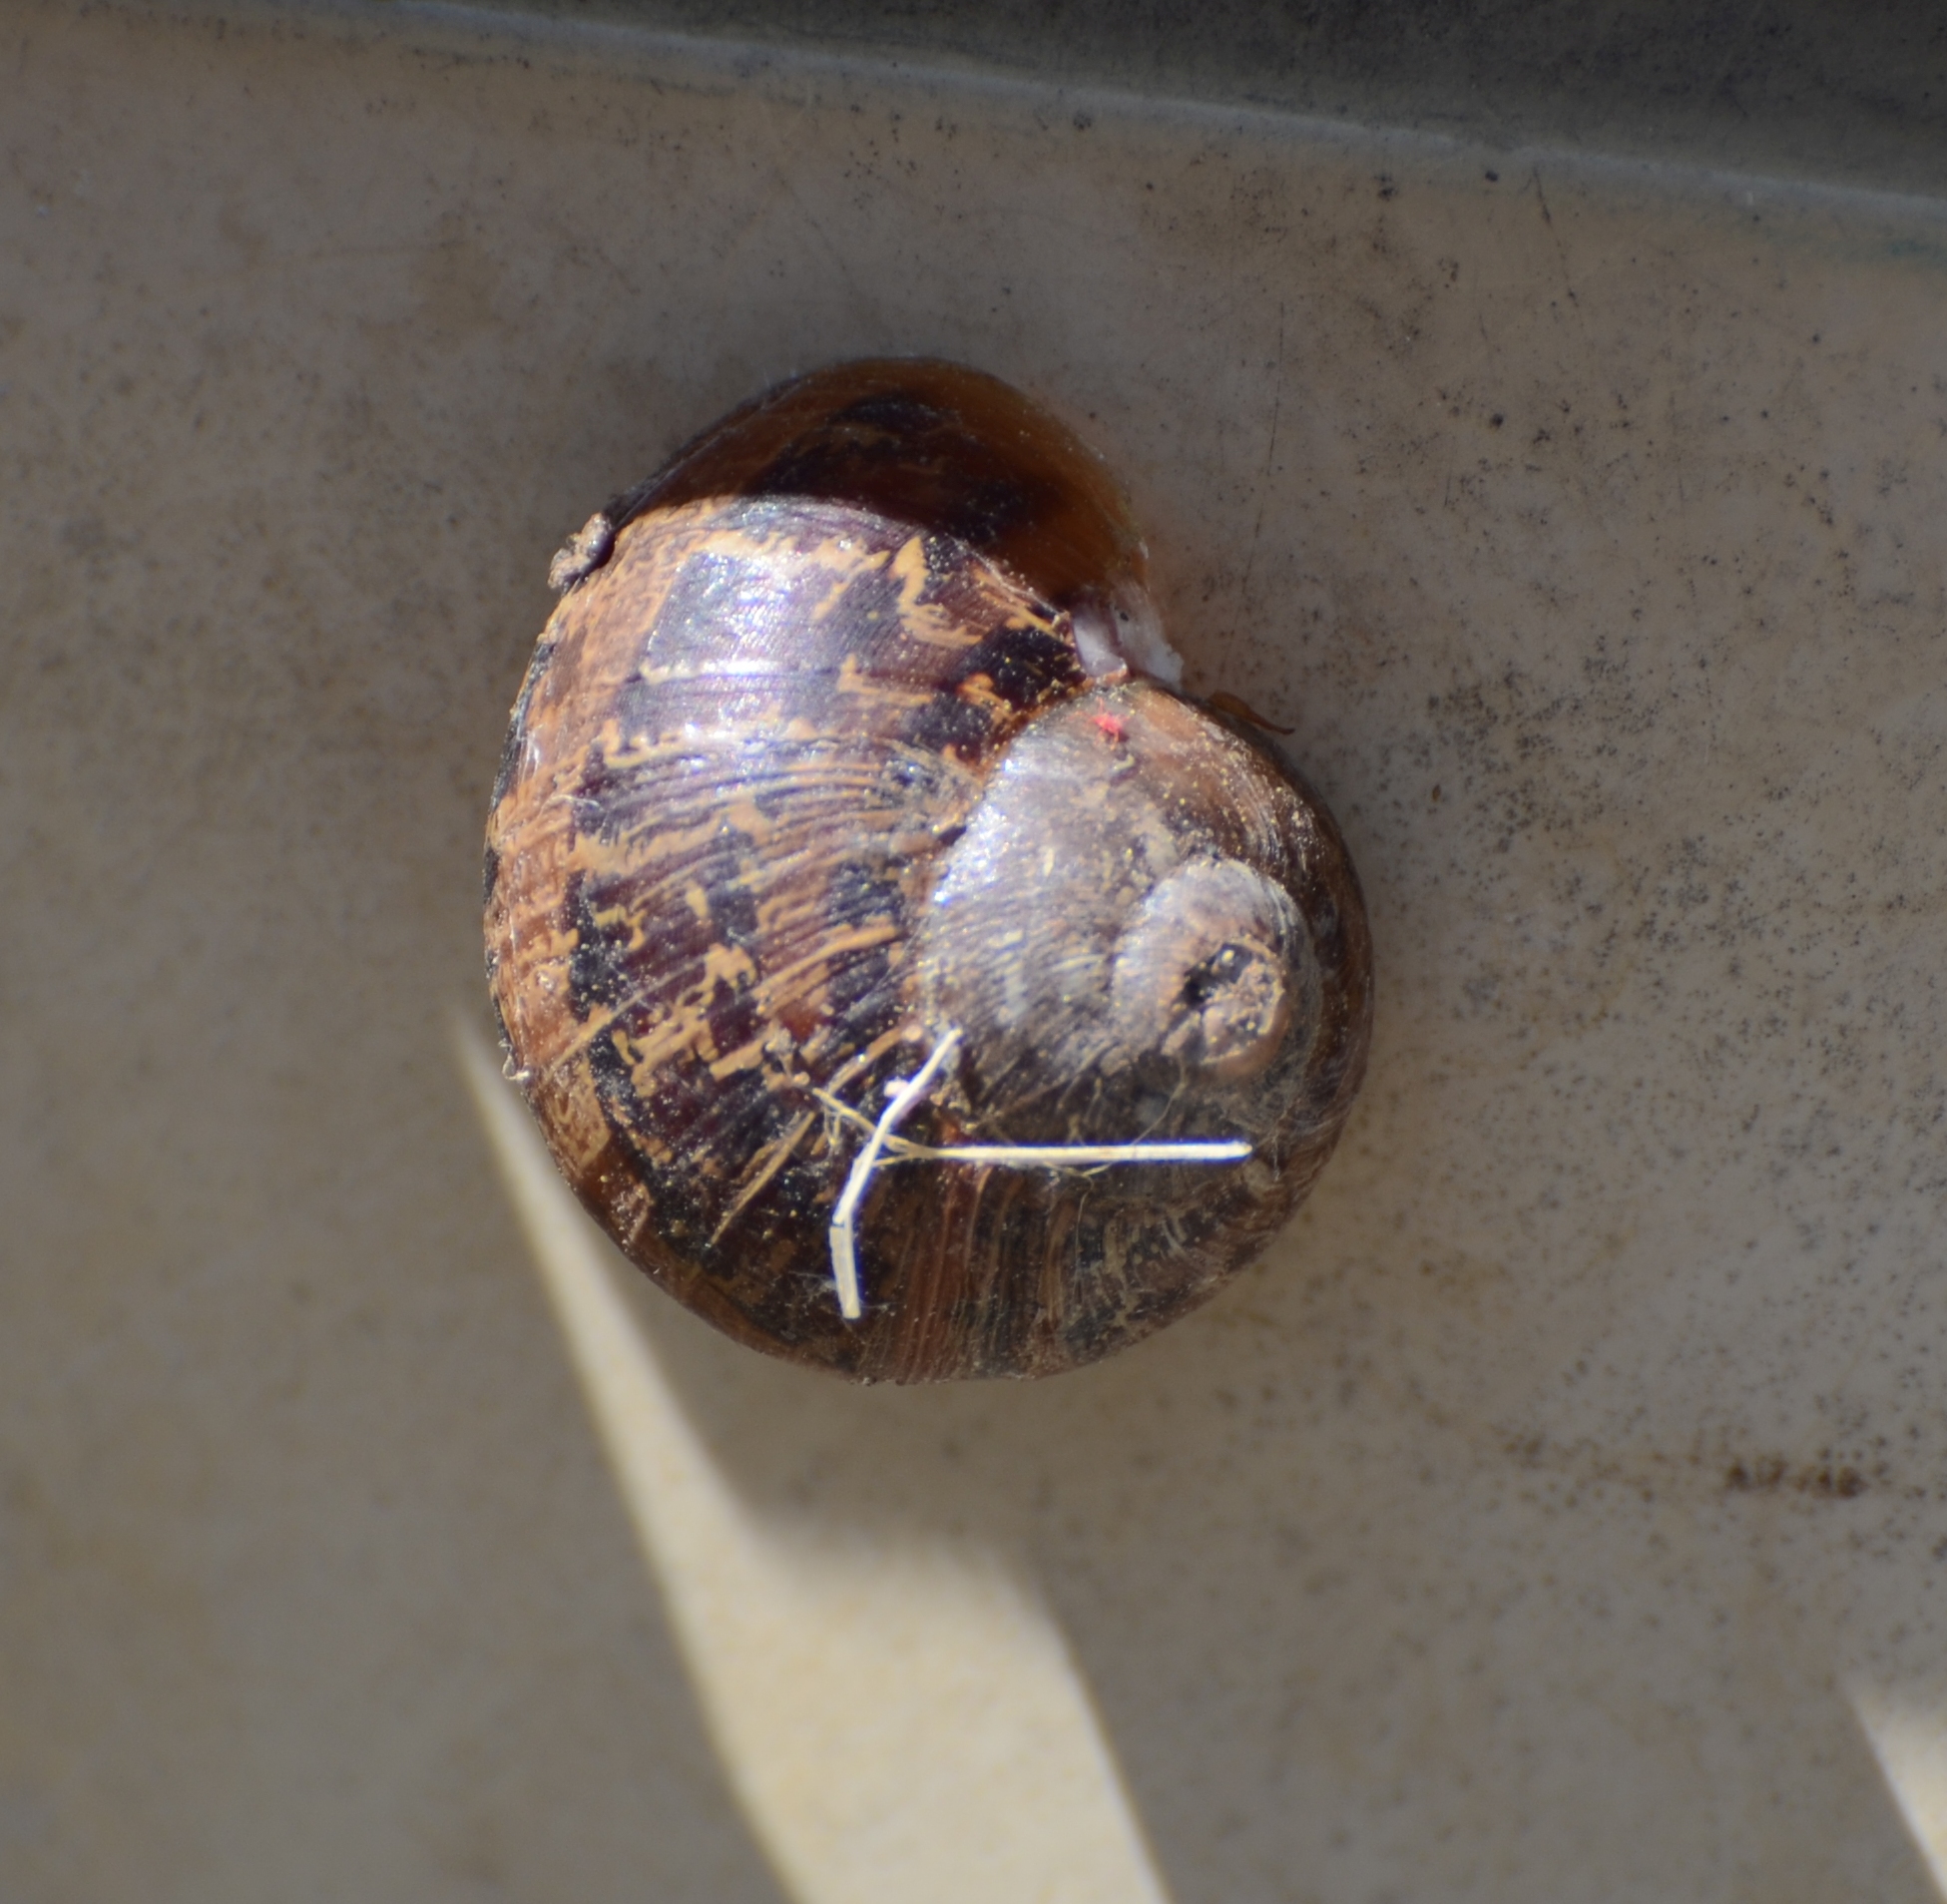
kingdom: Animalia
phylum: Mollusca
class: Gastropoda
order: Stylommatophora
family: Helicidae
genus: Cornu
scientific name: Cornu aspersum
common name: Brown garden snail
